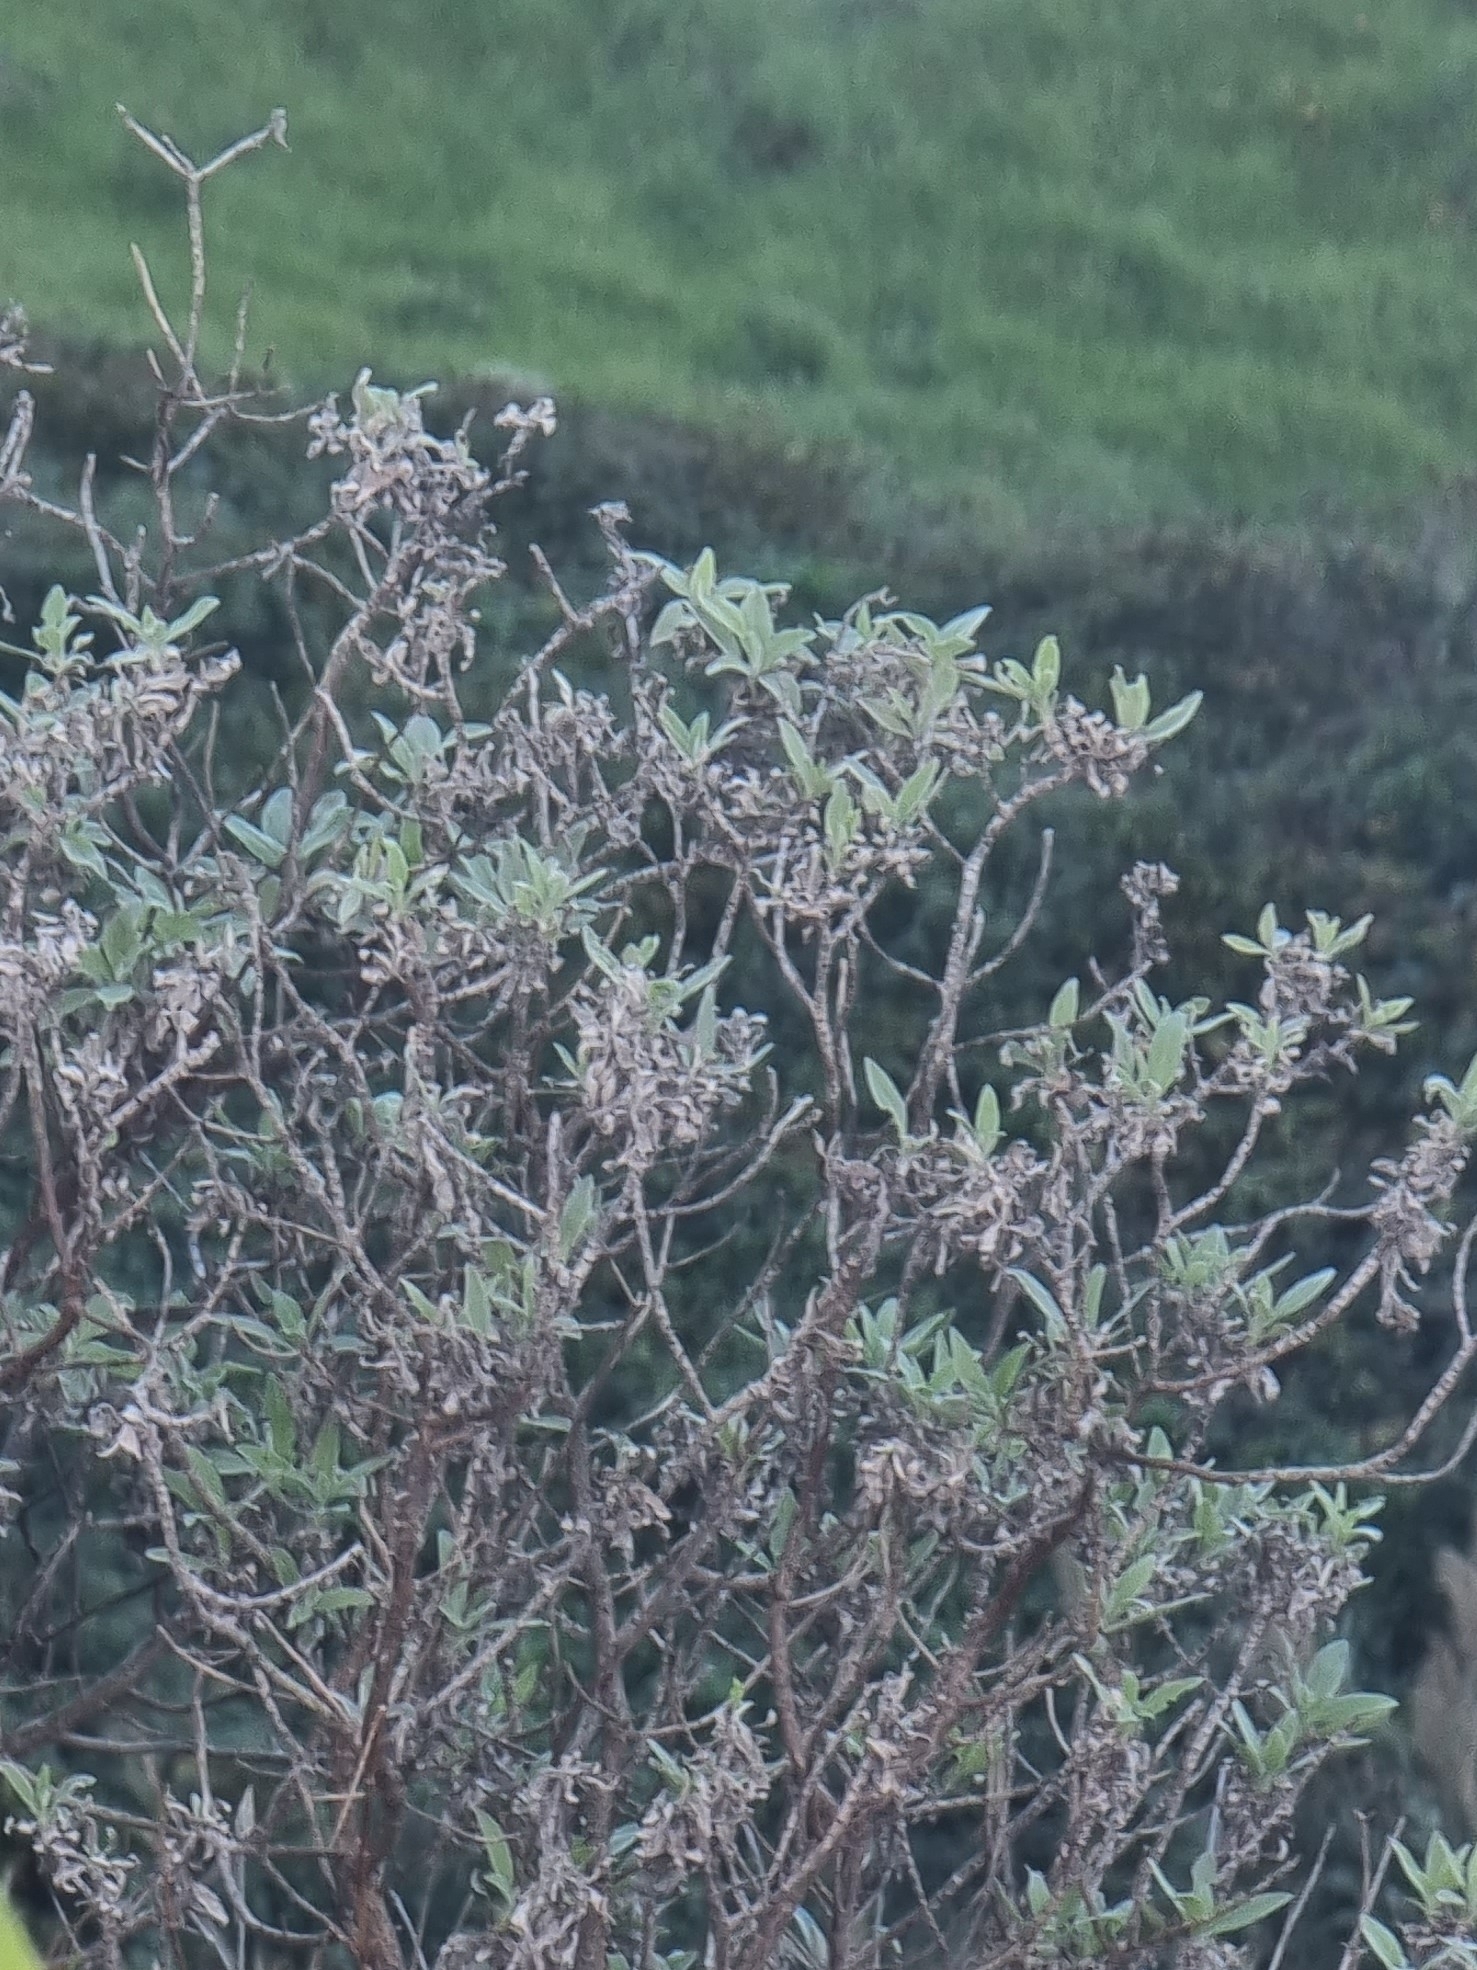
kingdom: Plantae
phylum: Tracheophyta
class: Magnoliopsida
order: Asterales
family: Asteraceae
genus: Helichrysum
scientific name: Helichrysum melaleucum
